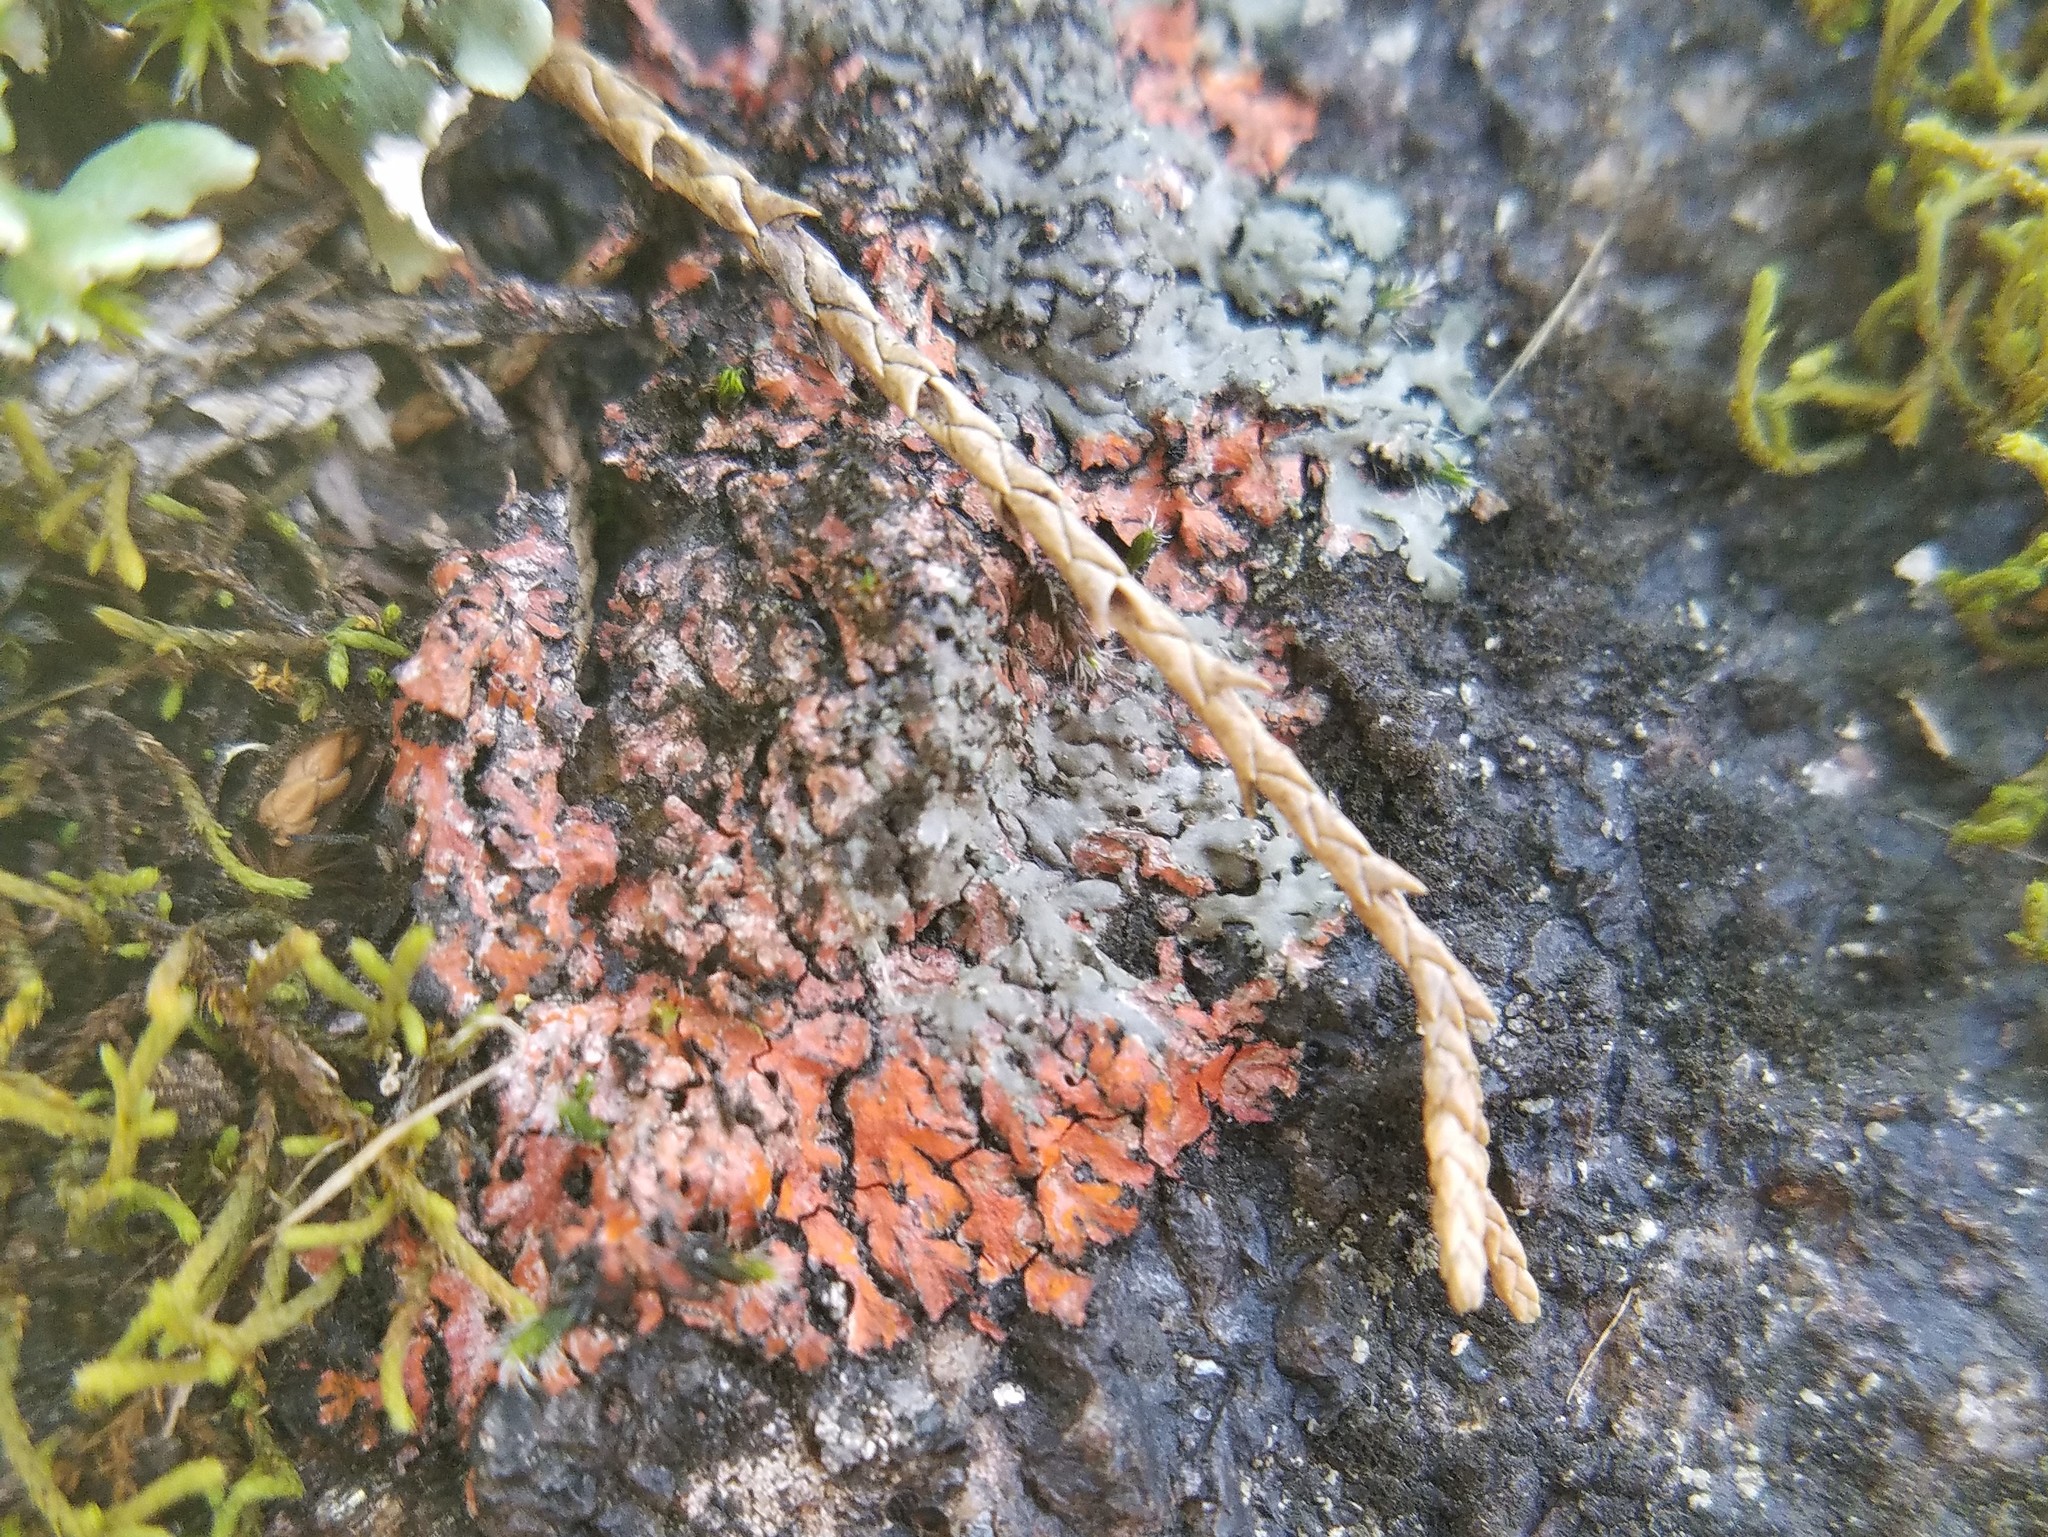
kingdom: Fungi
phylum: Ascomycota
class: Lecanoromycetes
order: Caliciales
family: Physciaceae
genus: Phaeophyscia
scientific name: Phaeophyscia rubropulchra
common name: Orange-cored shadow lichen
